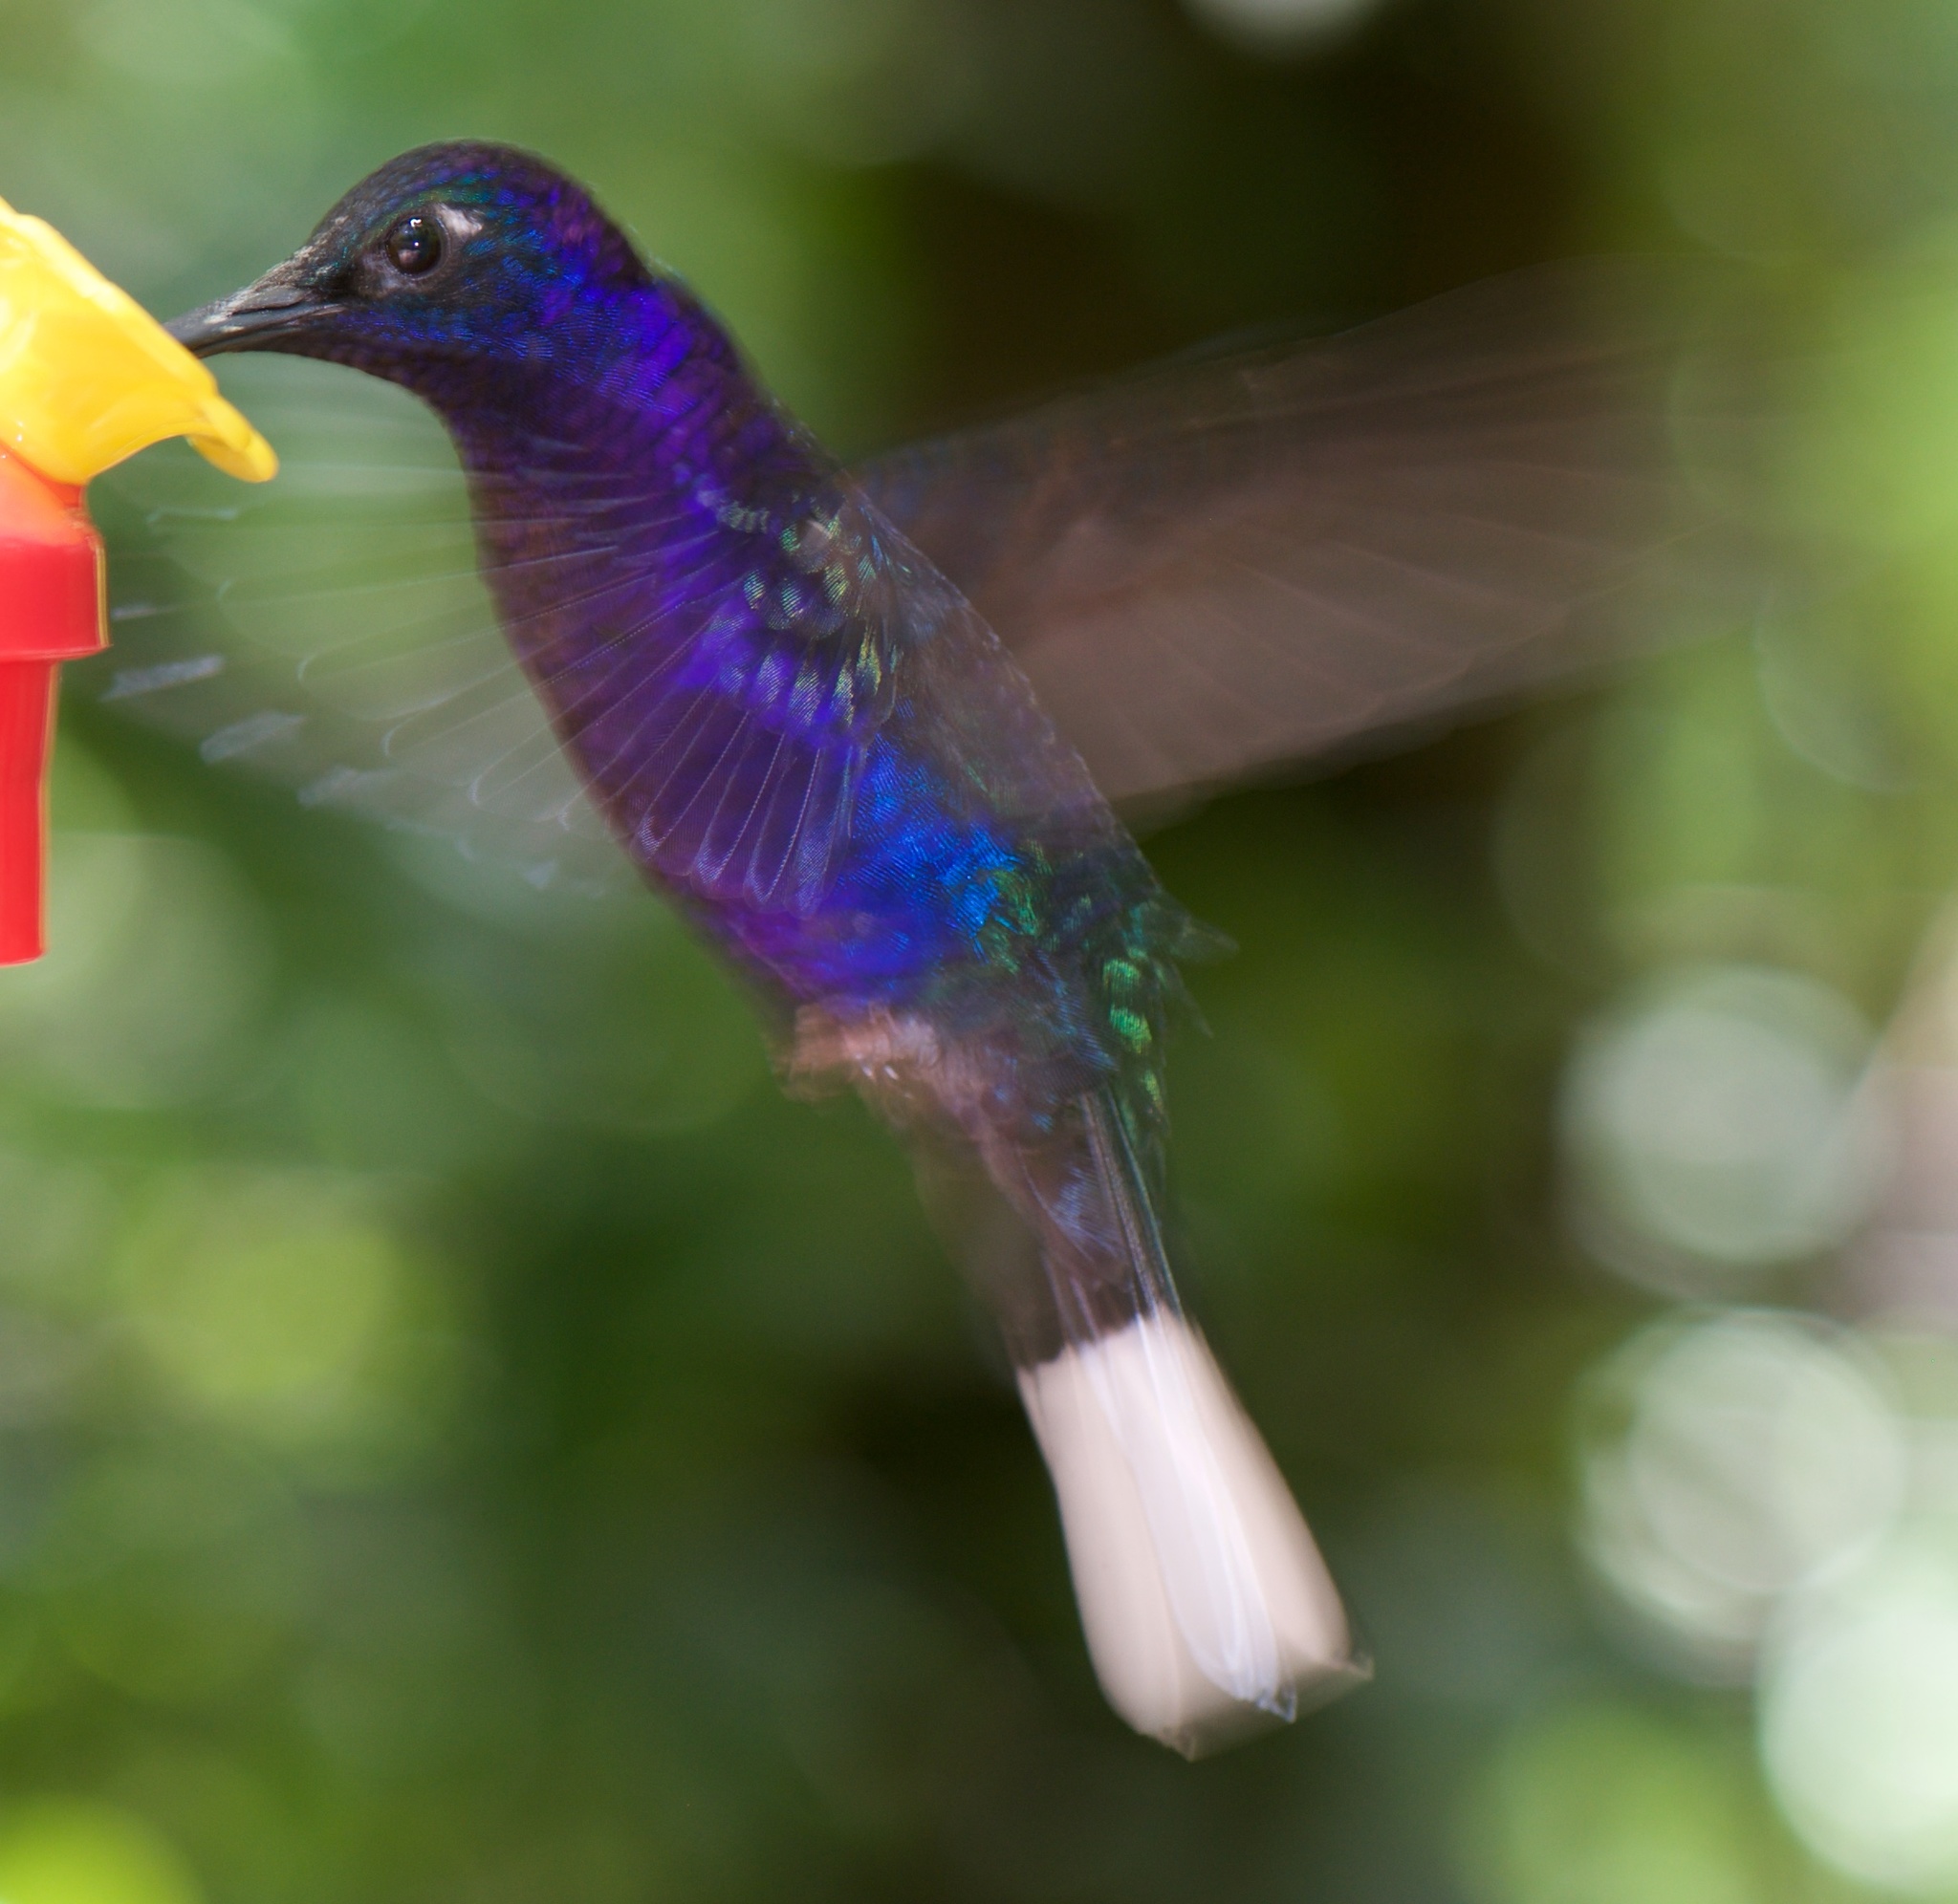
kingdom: Animalia
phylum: Chordata
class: Aves
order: Apodiformes
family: Trochilidae
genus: Campylopterus
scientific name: Campylopterus hemileucurus
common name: Violet sabrewing
